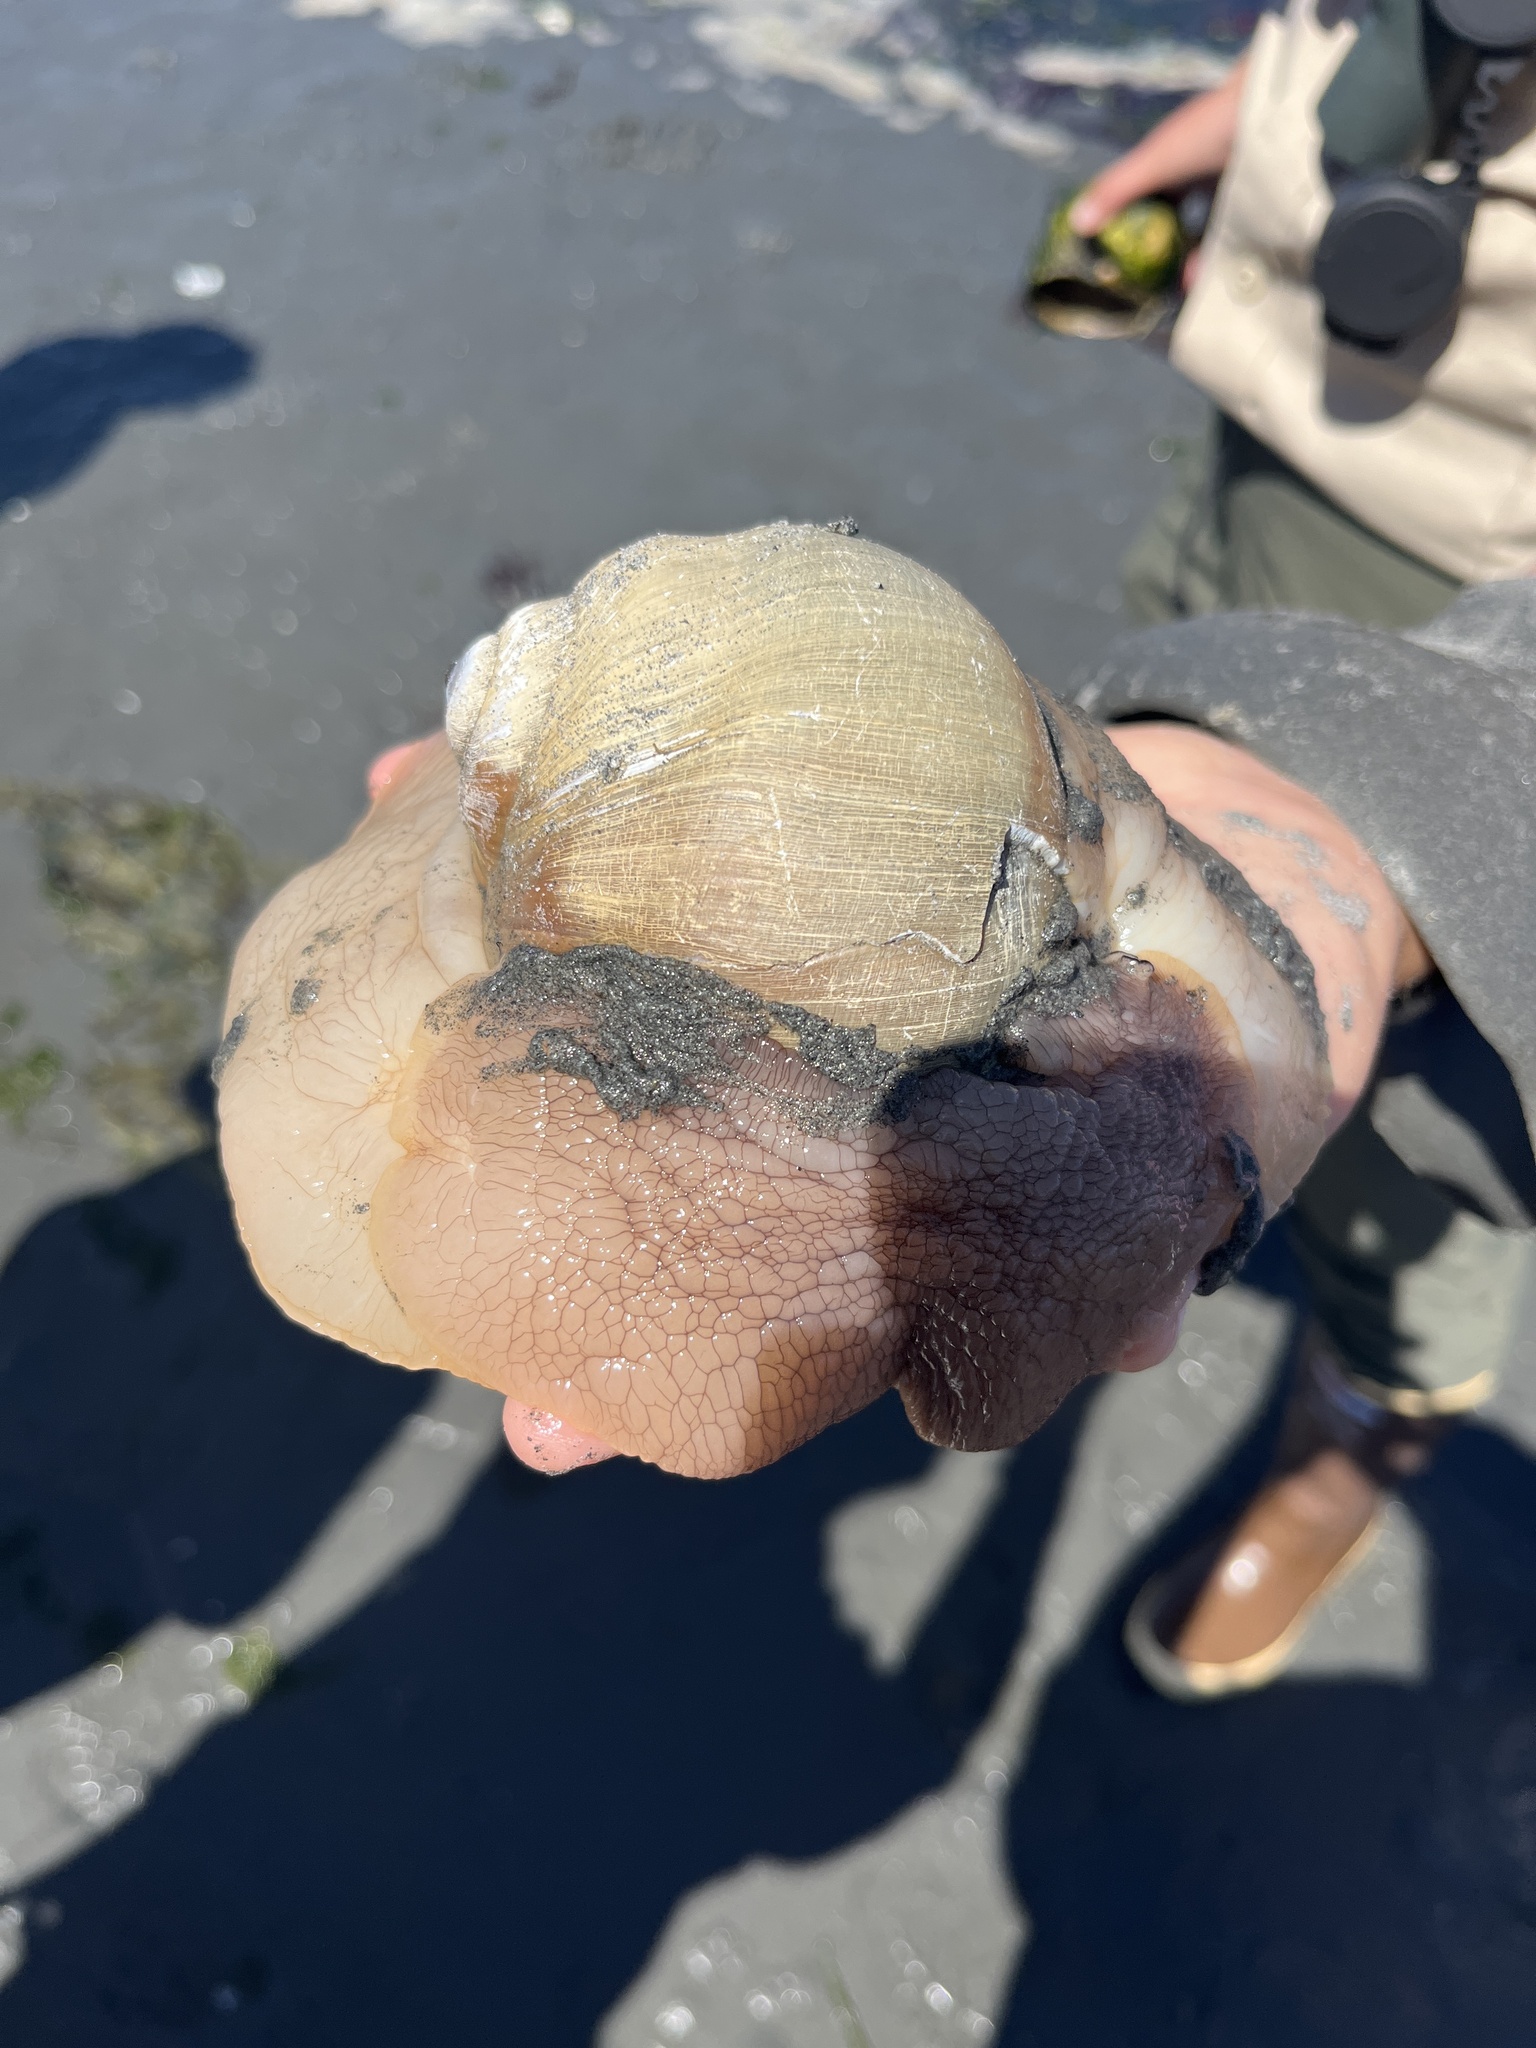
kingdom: Animalia
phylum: Mollusca
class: Gastropoda
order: Littorinimorpha
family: Naticidae
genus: Neverita
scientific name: Neverita lewisii
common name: Lewis' moonsnail
